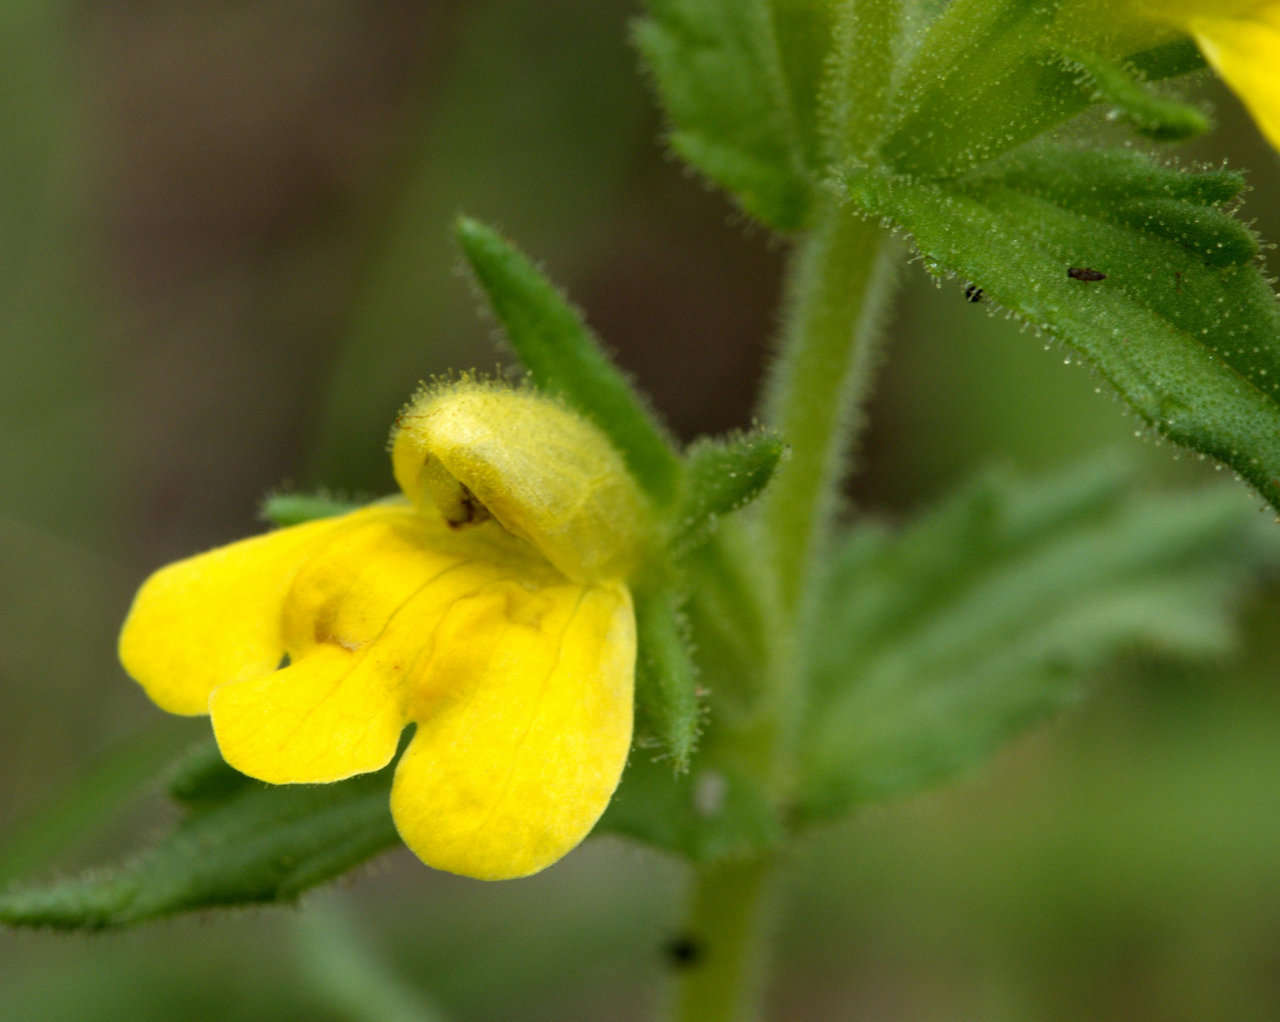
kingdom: Plantae
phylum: Tracheophyta
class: Magnoliopsida
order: Lamiales
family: Orobanchaceae
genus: Bellardia
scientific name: Bellardia viscosa
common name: Sticky parentucellia
